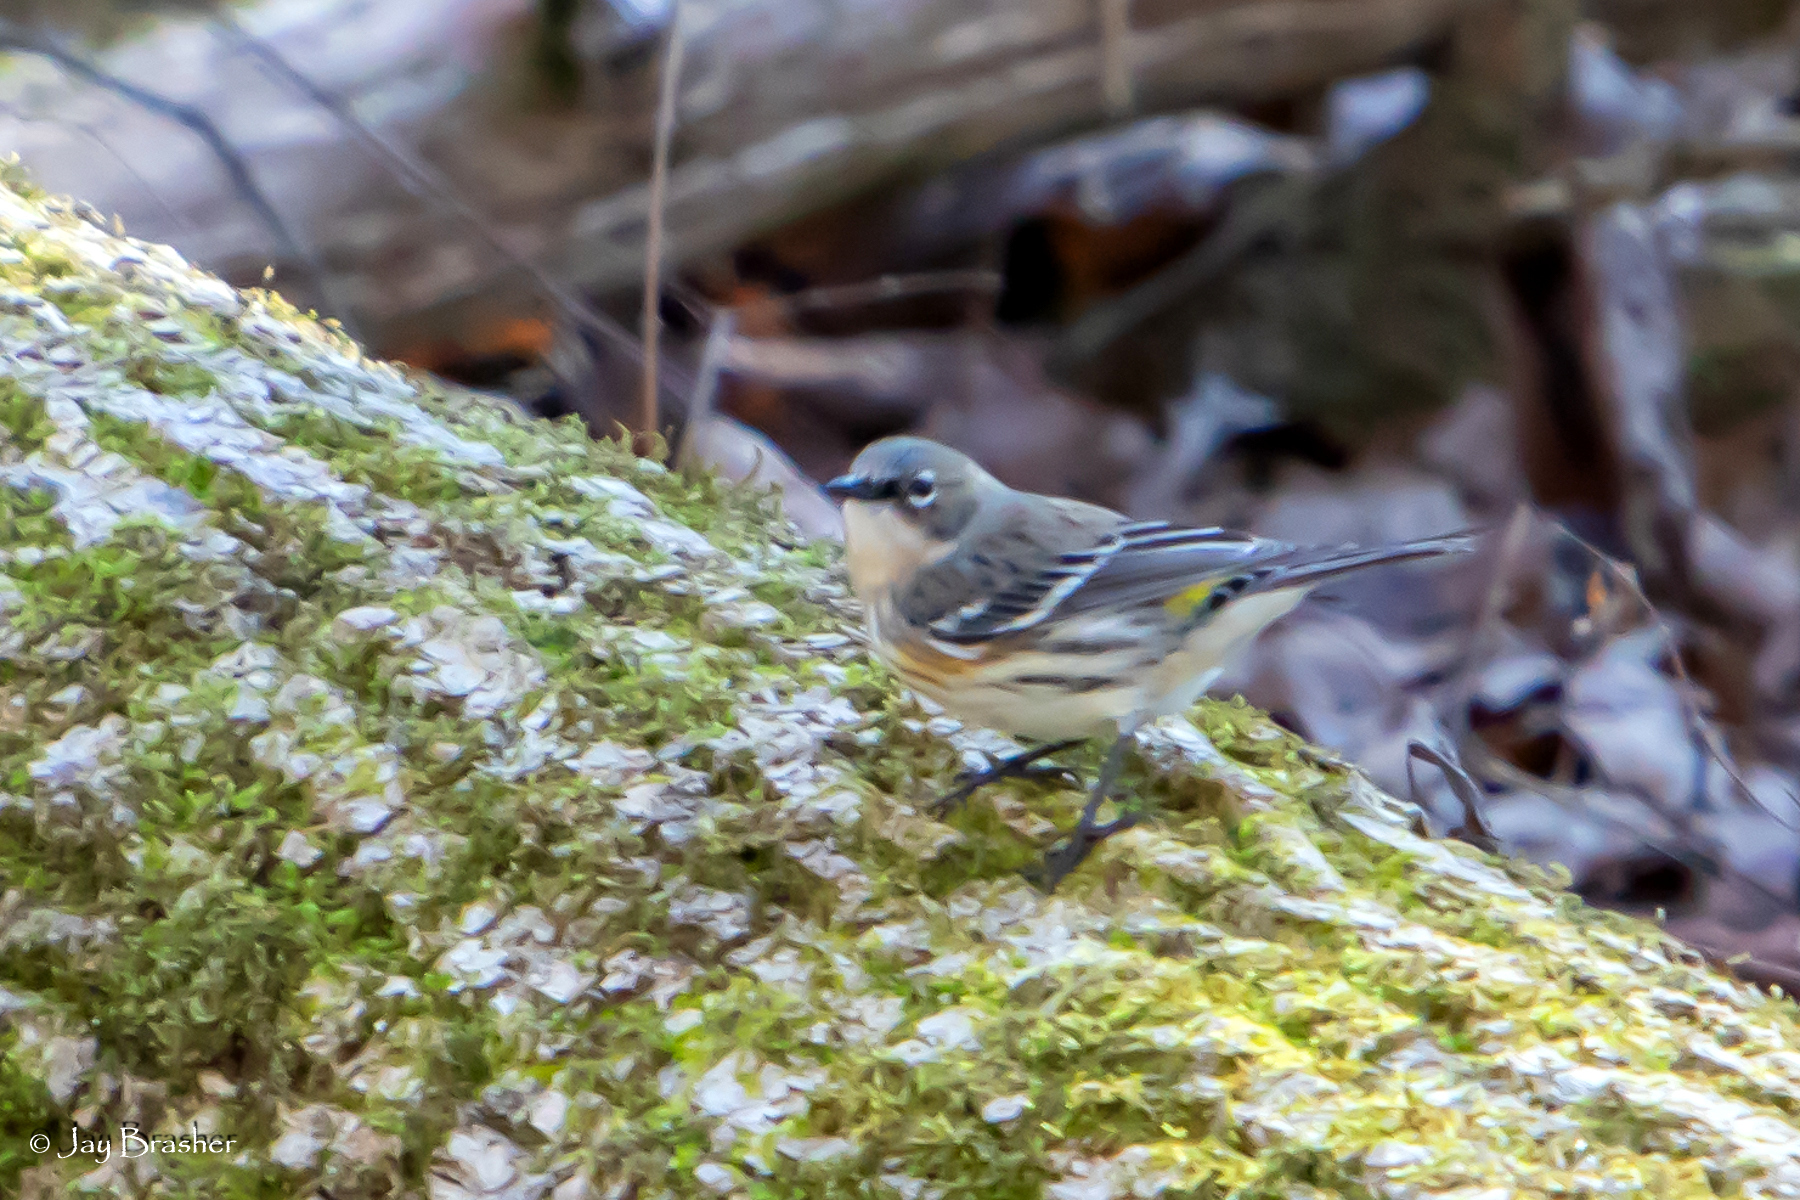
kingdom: Animalia
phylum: Chordata
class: Aves
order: Passeriformes
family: Parulidae
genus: Setophaga
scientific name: Setophaga coronata
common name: Myrtle warbler
